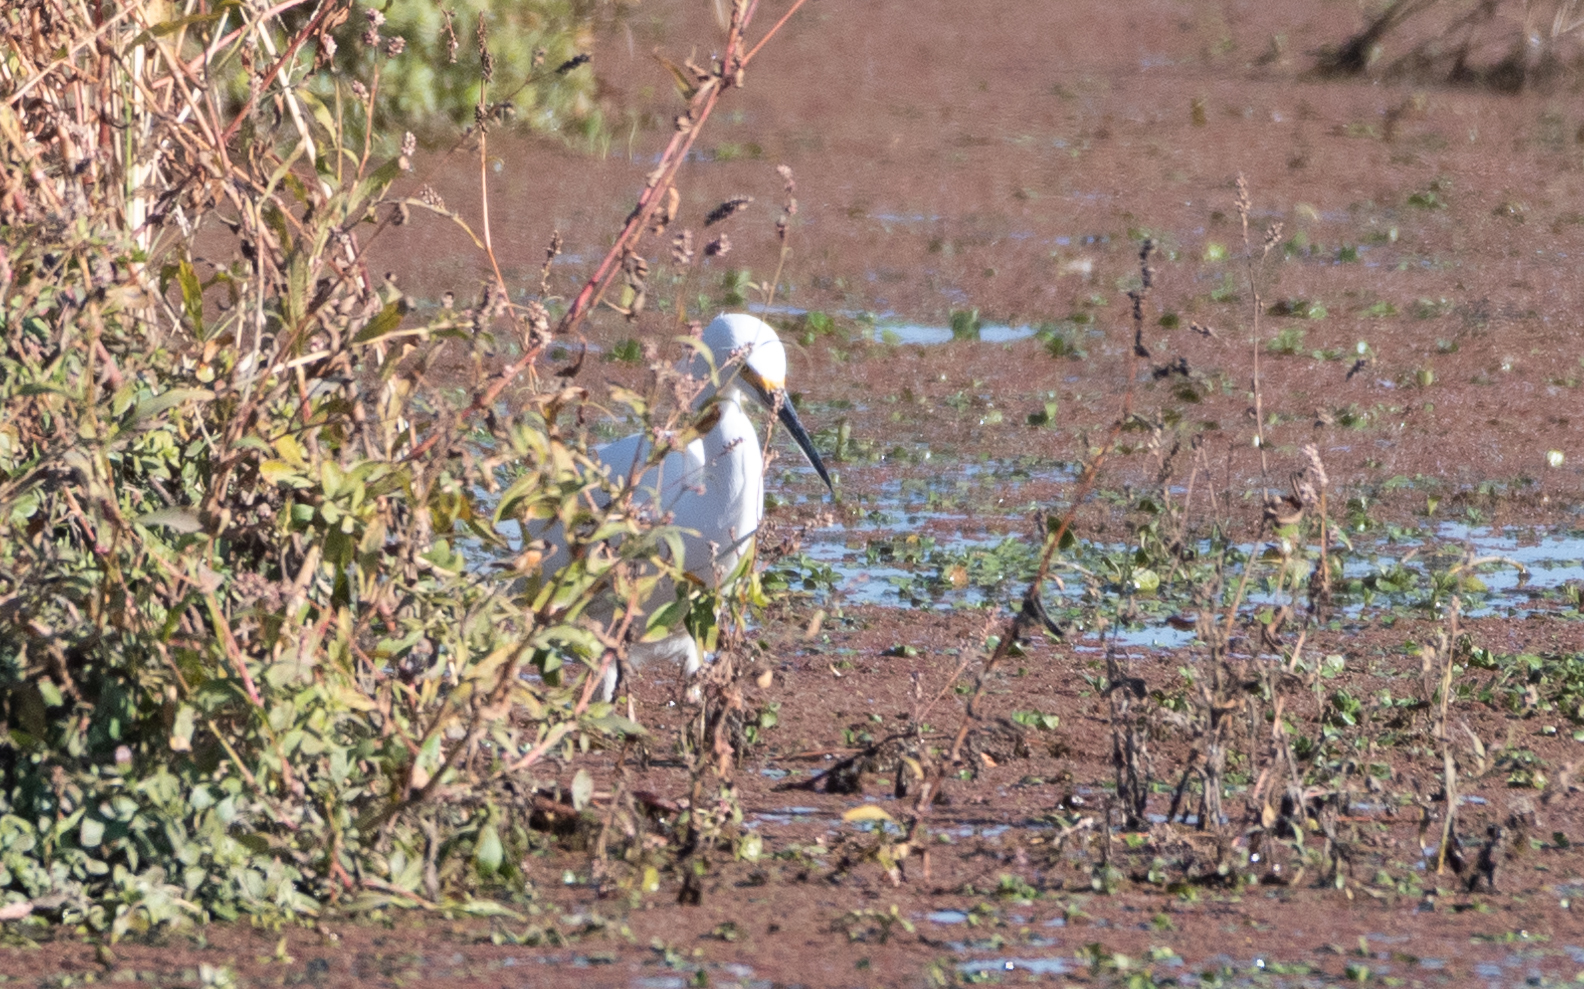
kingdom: Animalia
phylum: Chordata
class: Aves
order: Pelecaniformes
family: Ardeidae
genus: Egretta
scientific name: Egretta thula
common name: Snowy egret
